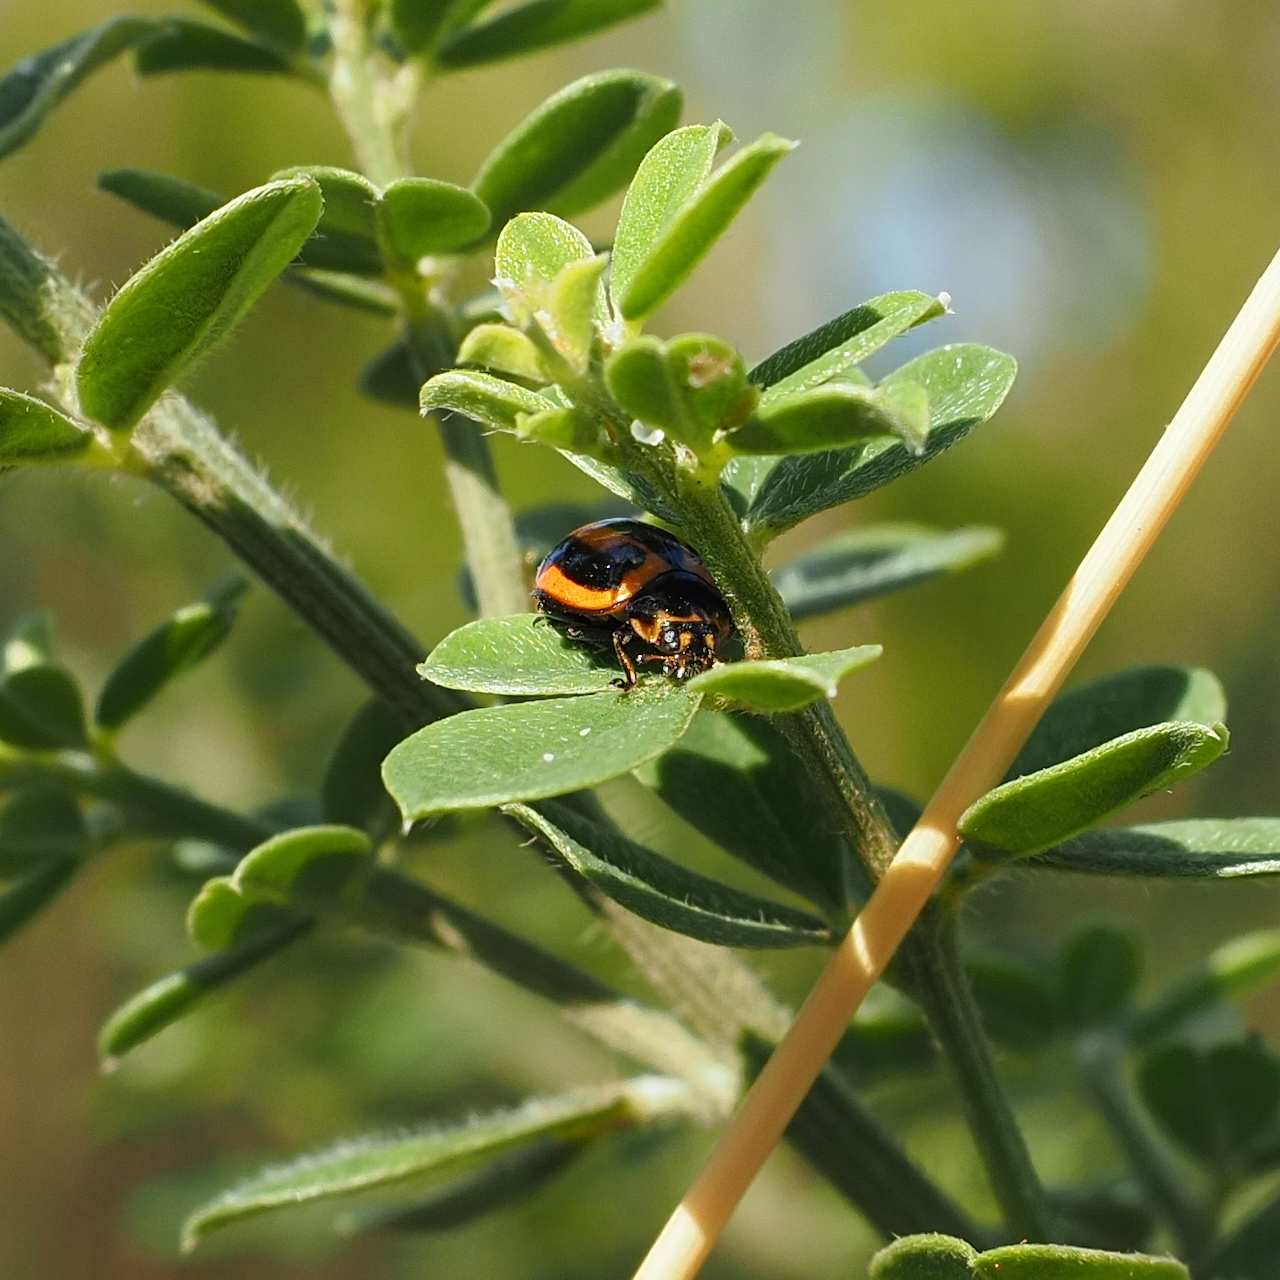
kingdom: Animalia
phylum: Arthropoda
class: Insecta
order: Coleoptera
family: Coccinellidae
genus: Micraspis
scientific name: Micraspis frenata
